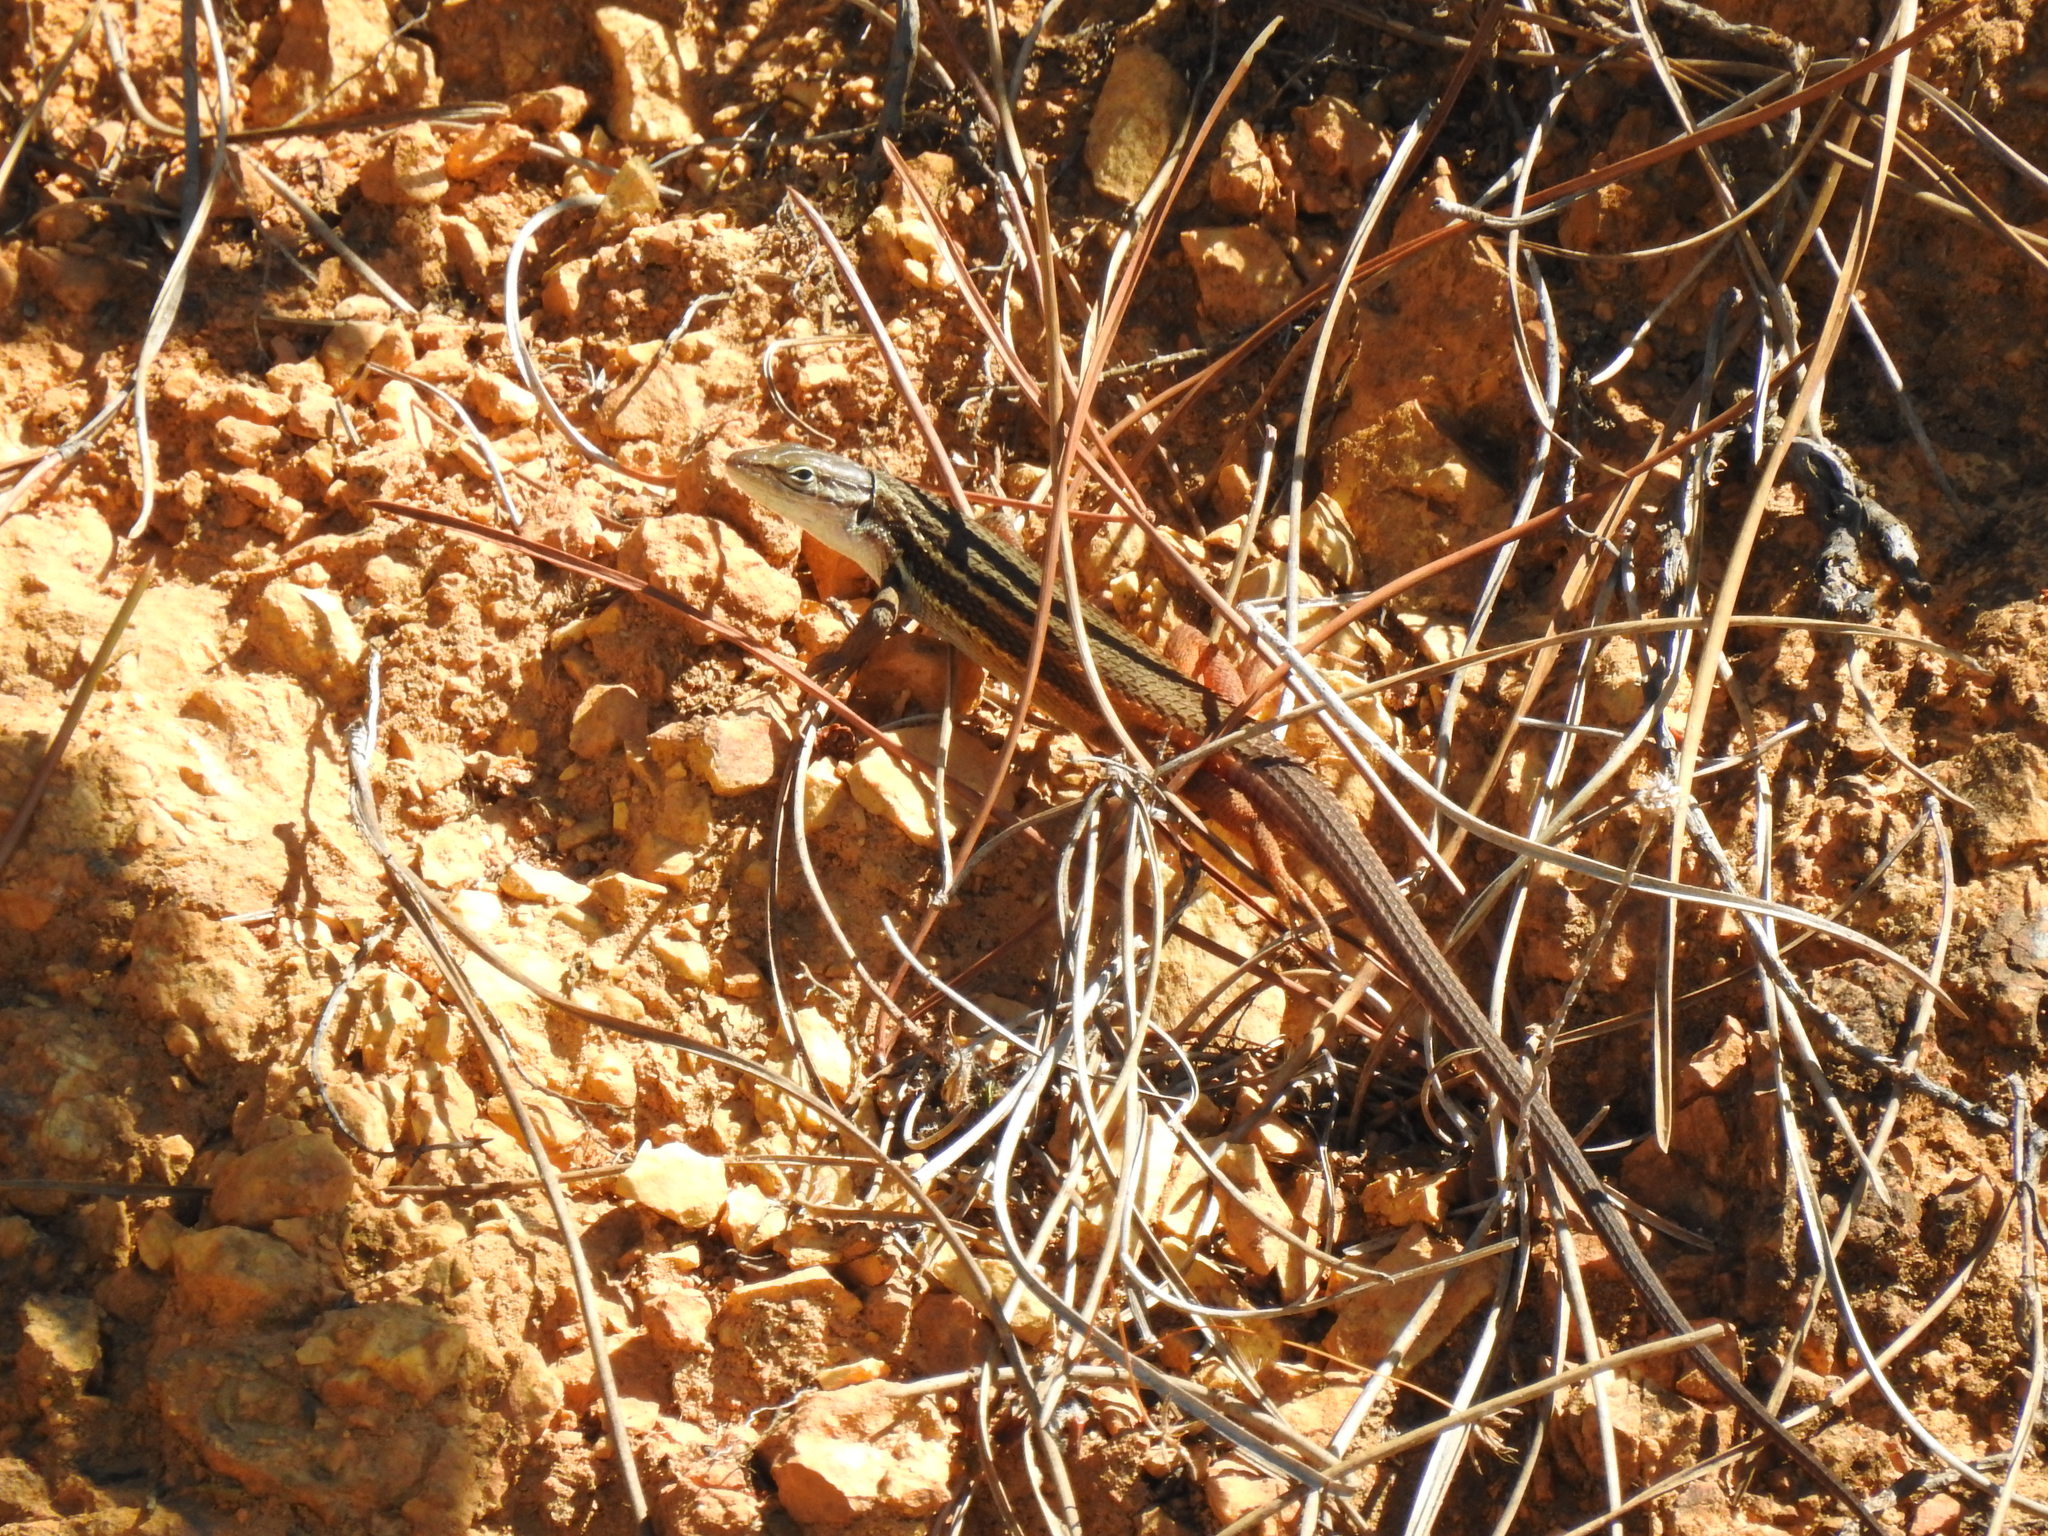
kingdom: Animalia
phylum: Chordata
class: Squamata
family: Lacertidae
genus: Psammodromus
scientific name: Psammodromus algirus
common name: Algerian psammodromus
